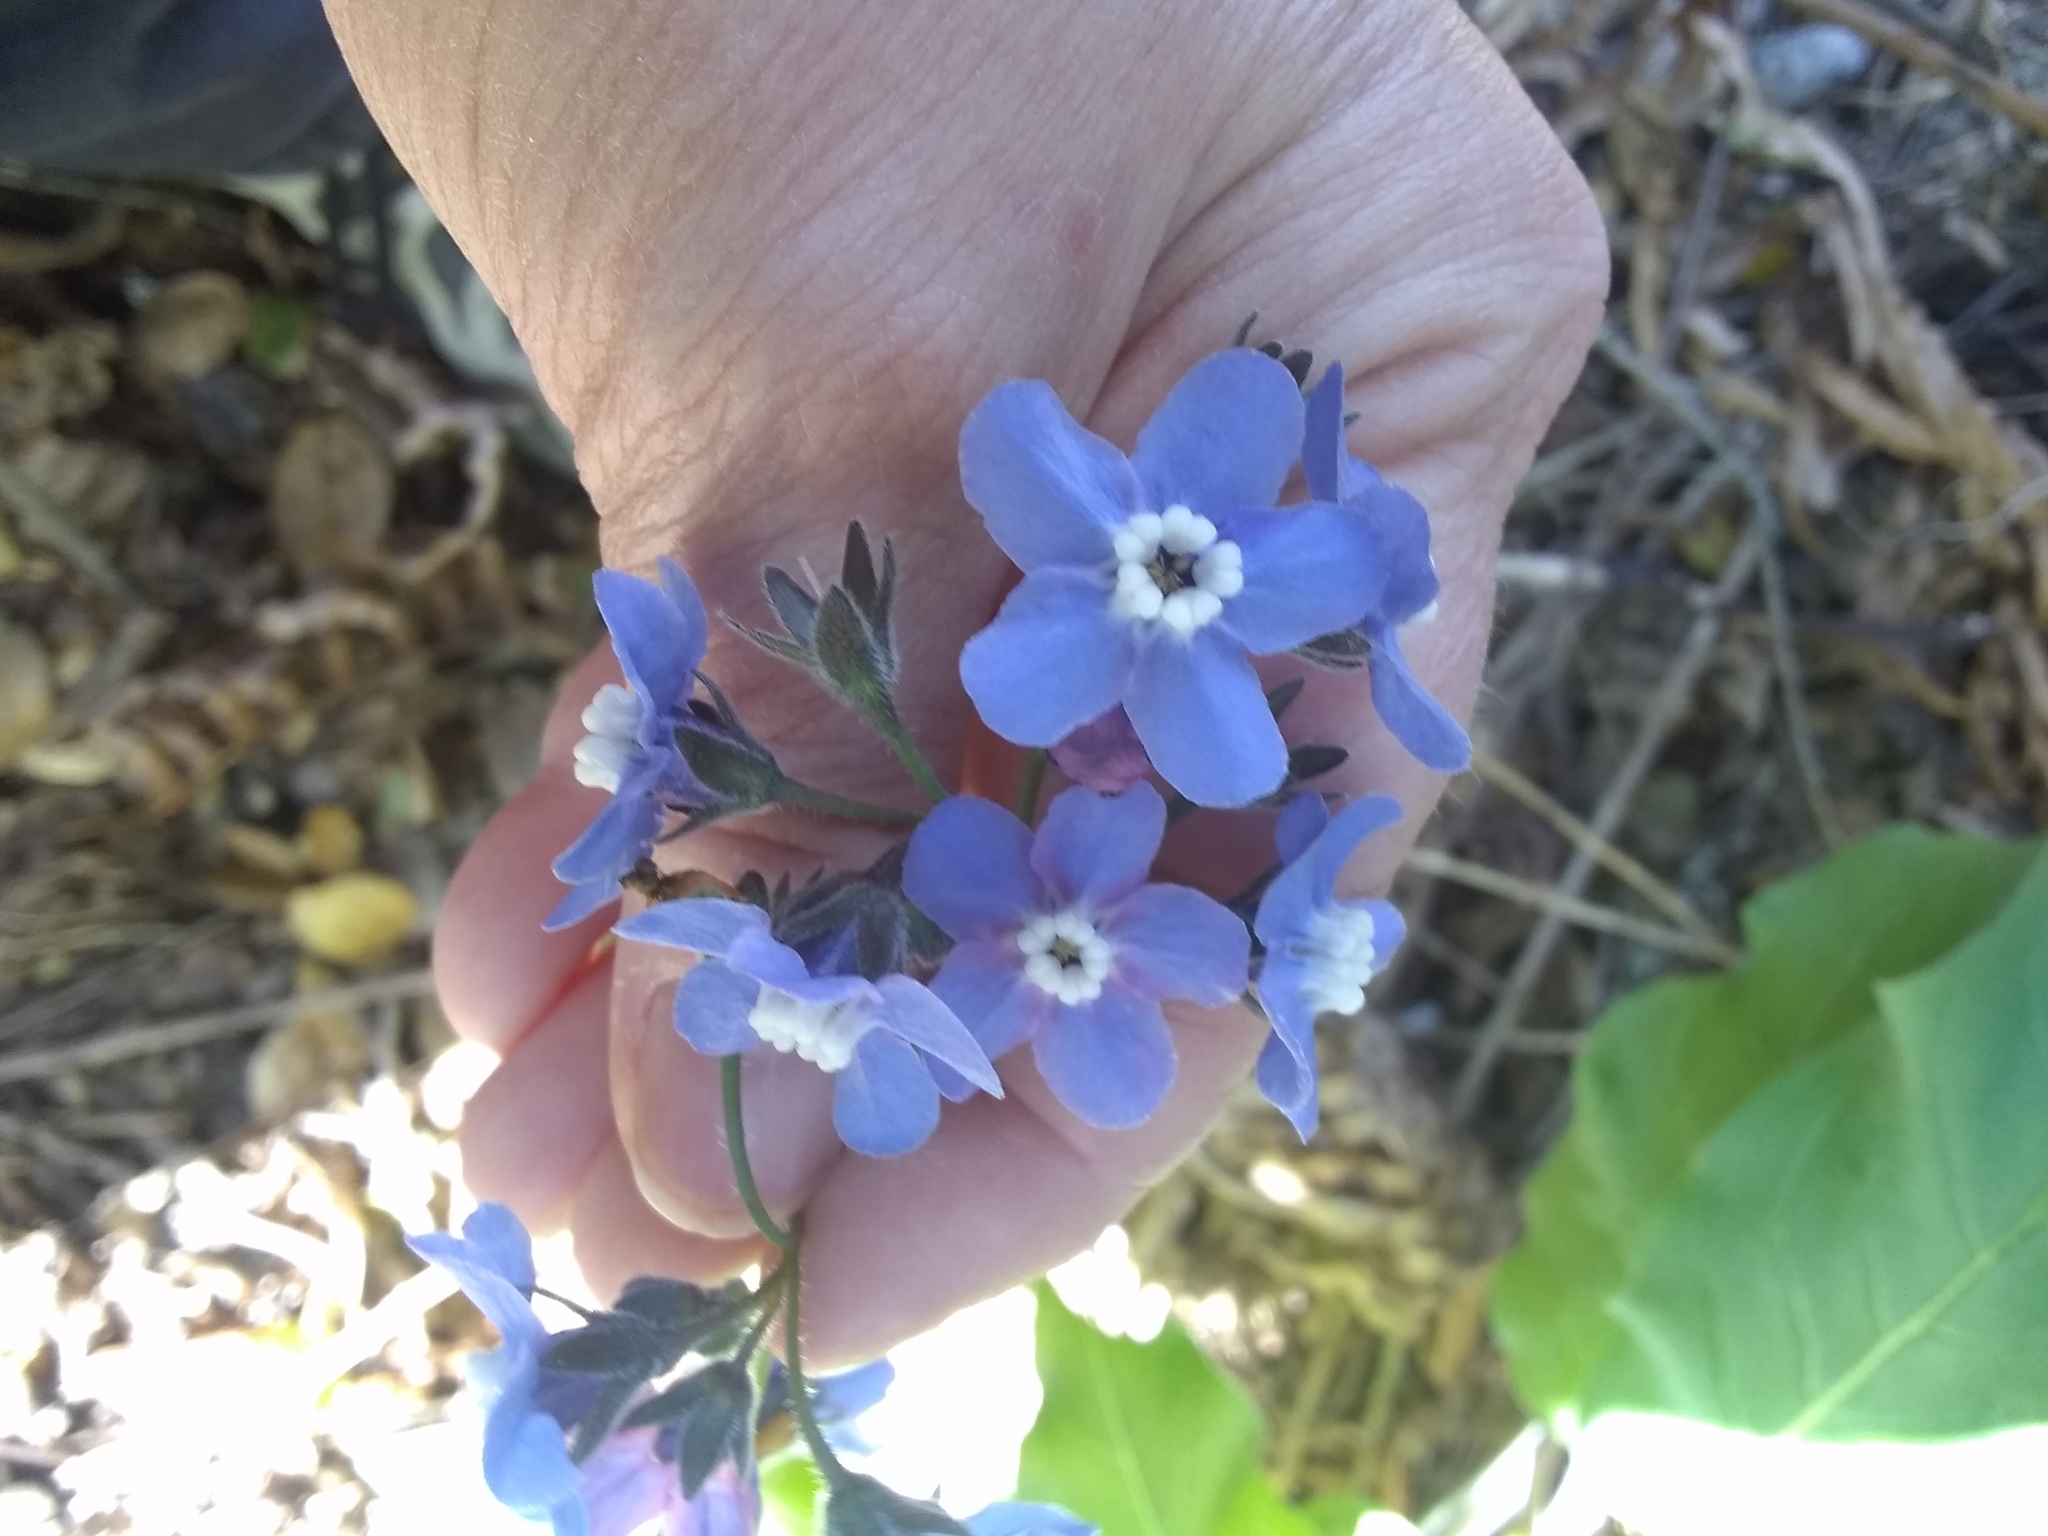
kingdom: Plantae
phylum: Tracheophyta
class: Magnoliopsida
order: Boraginales
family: Boraginaceae
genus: Adelinia
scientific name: Adelinia grande
